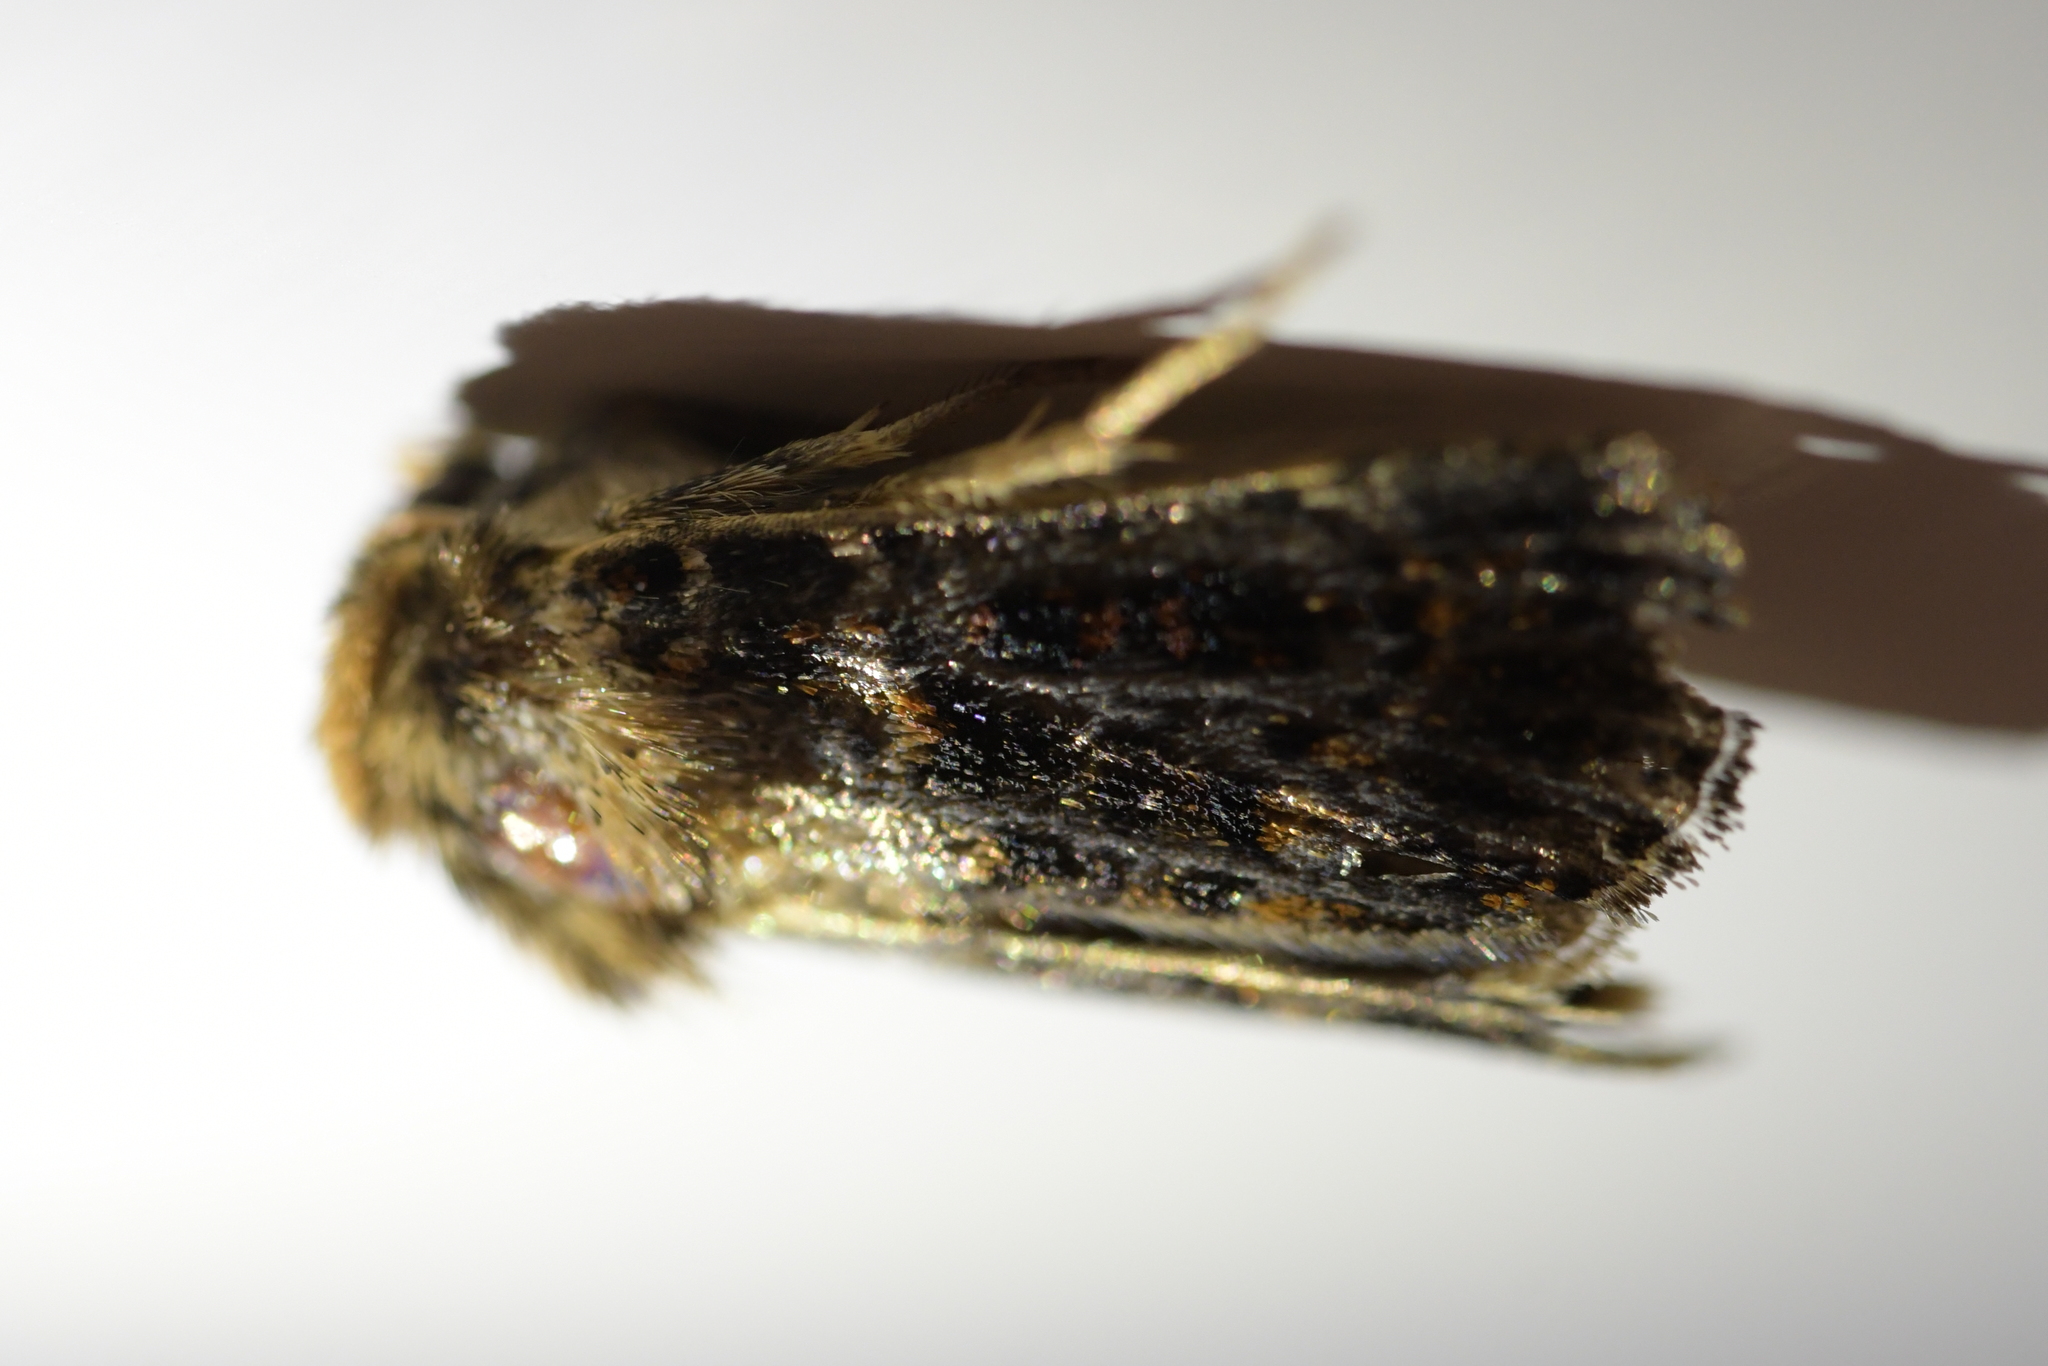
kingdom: Animalia
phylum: Arthropoda
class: Insecta
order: Lepidoptera
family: Noctuidae
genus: Proteuxoa
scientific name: Proteuxoa sanguinipuncta
